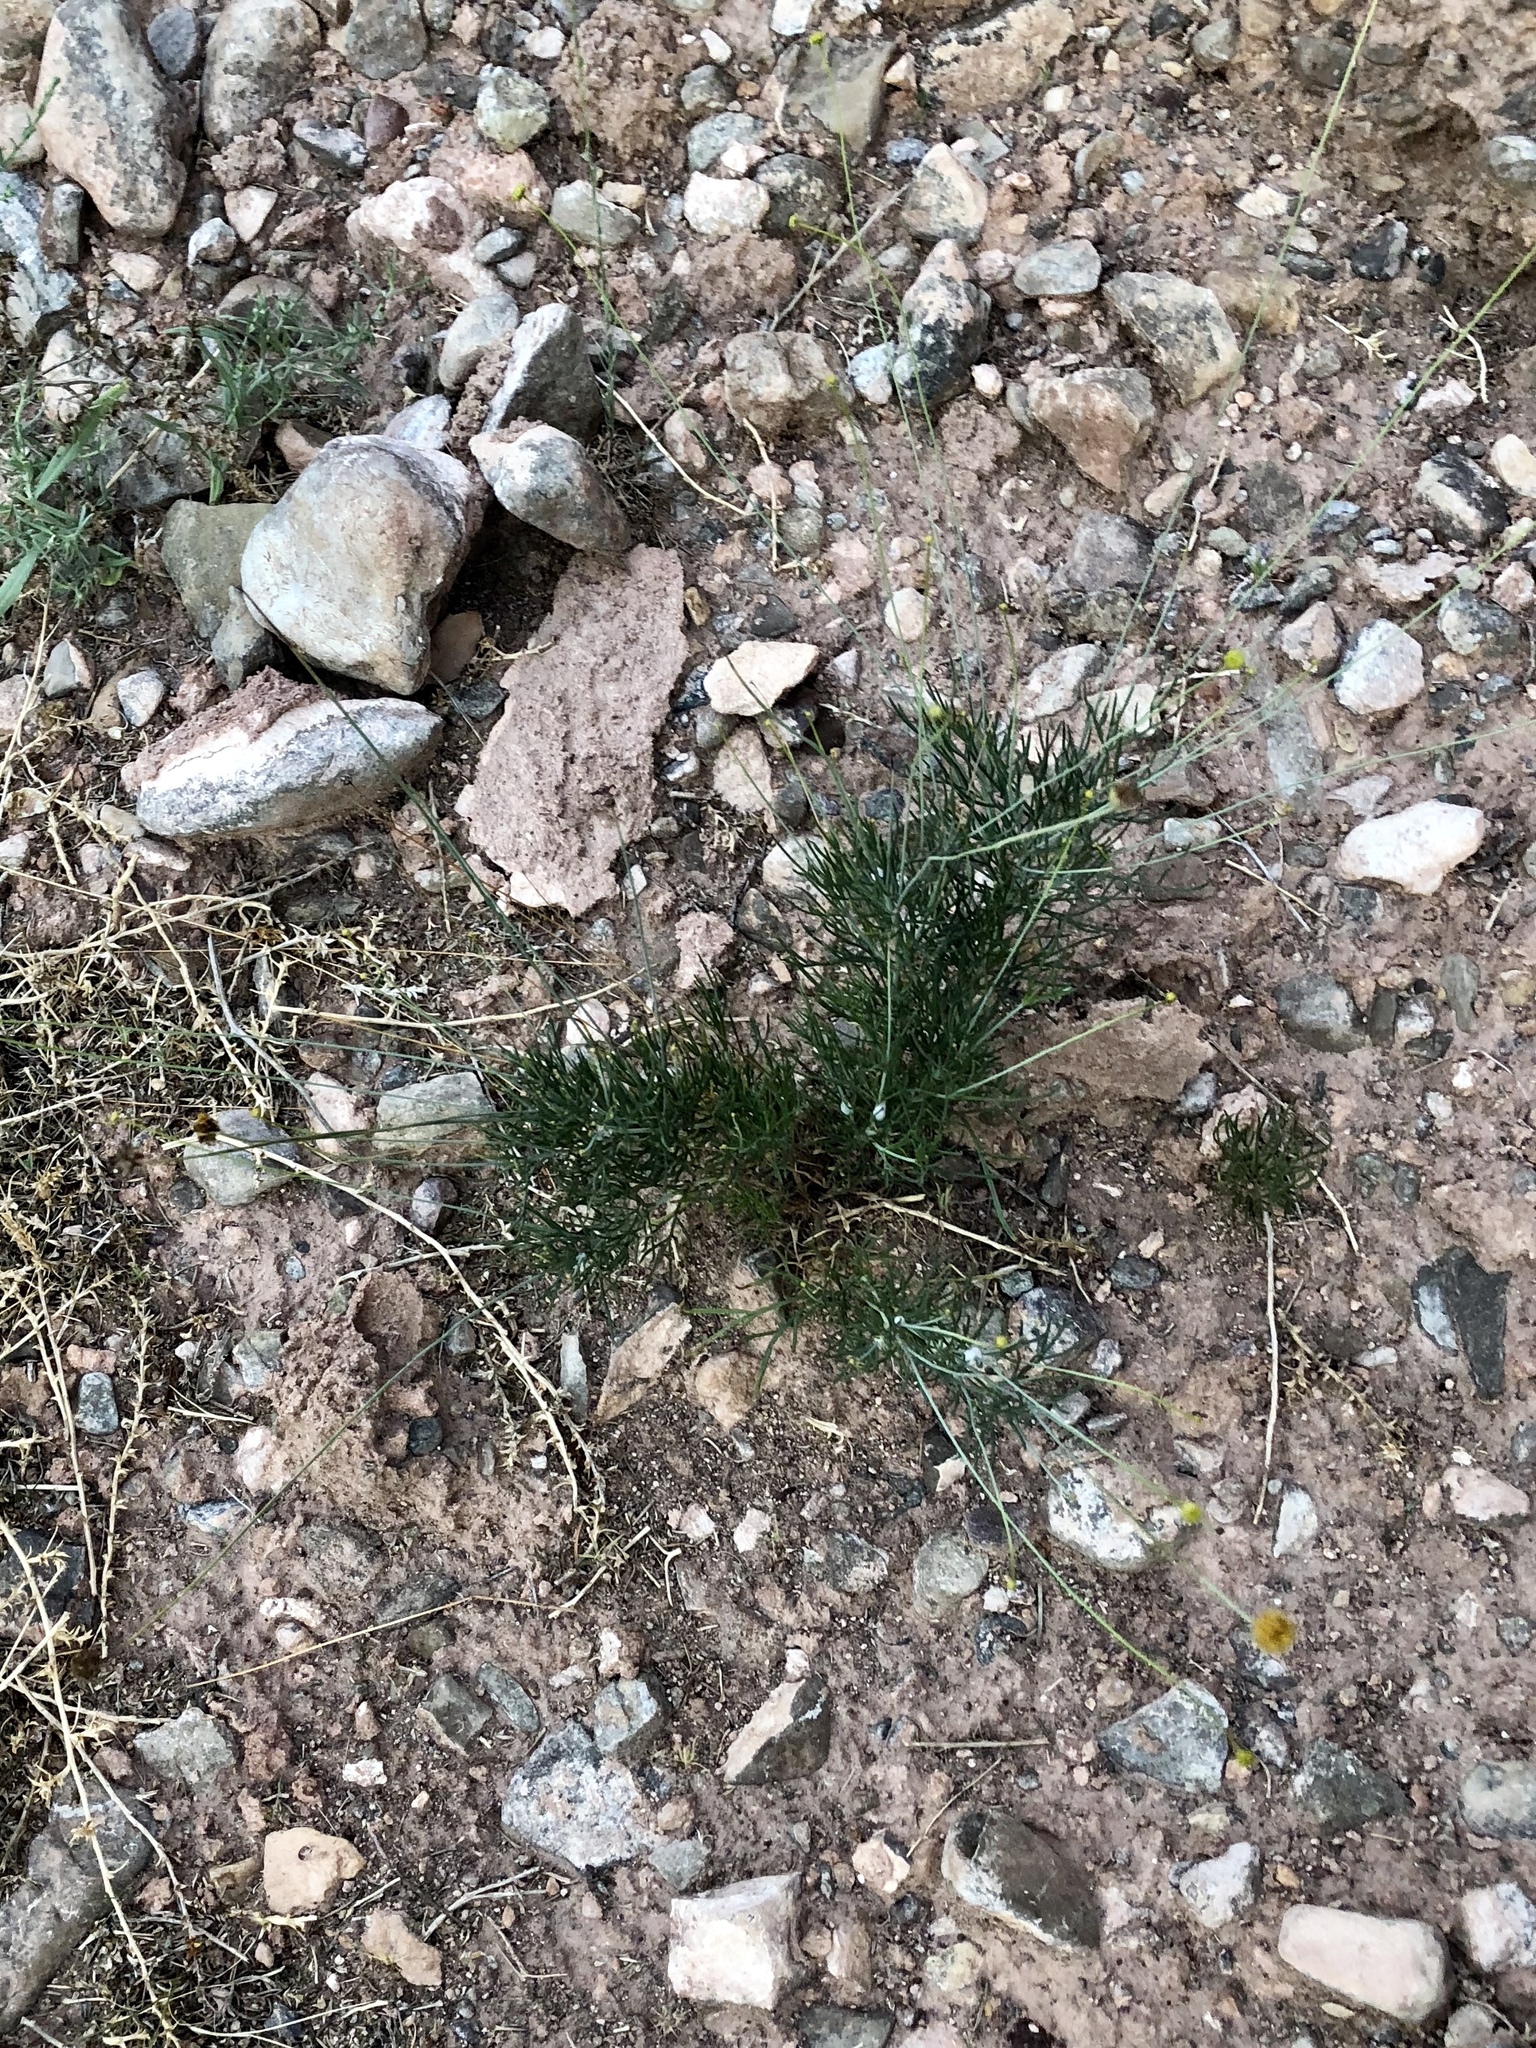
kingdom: Plantae
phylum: Tracheophyta
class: Magnoliopsida
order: Asterales
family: Asteraceae
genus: Thelesperma
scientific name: Thelesperma longipes
